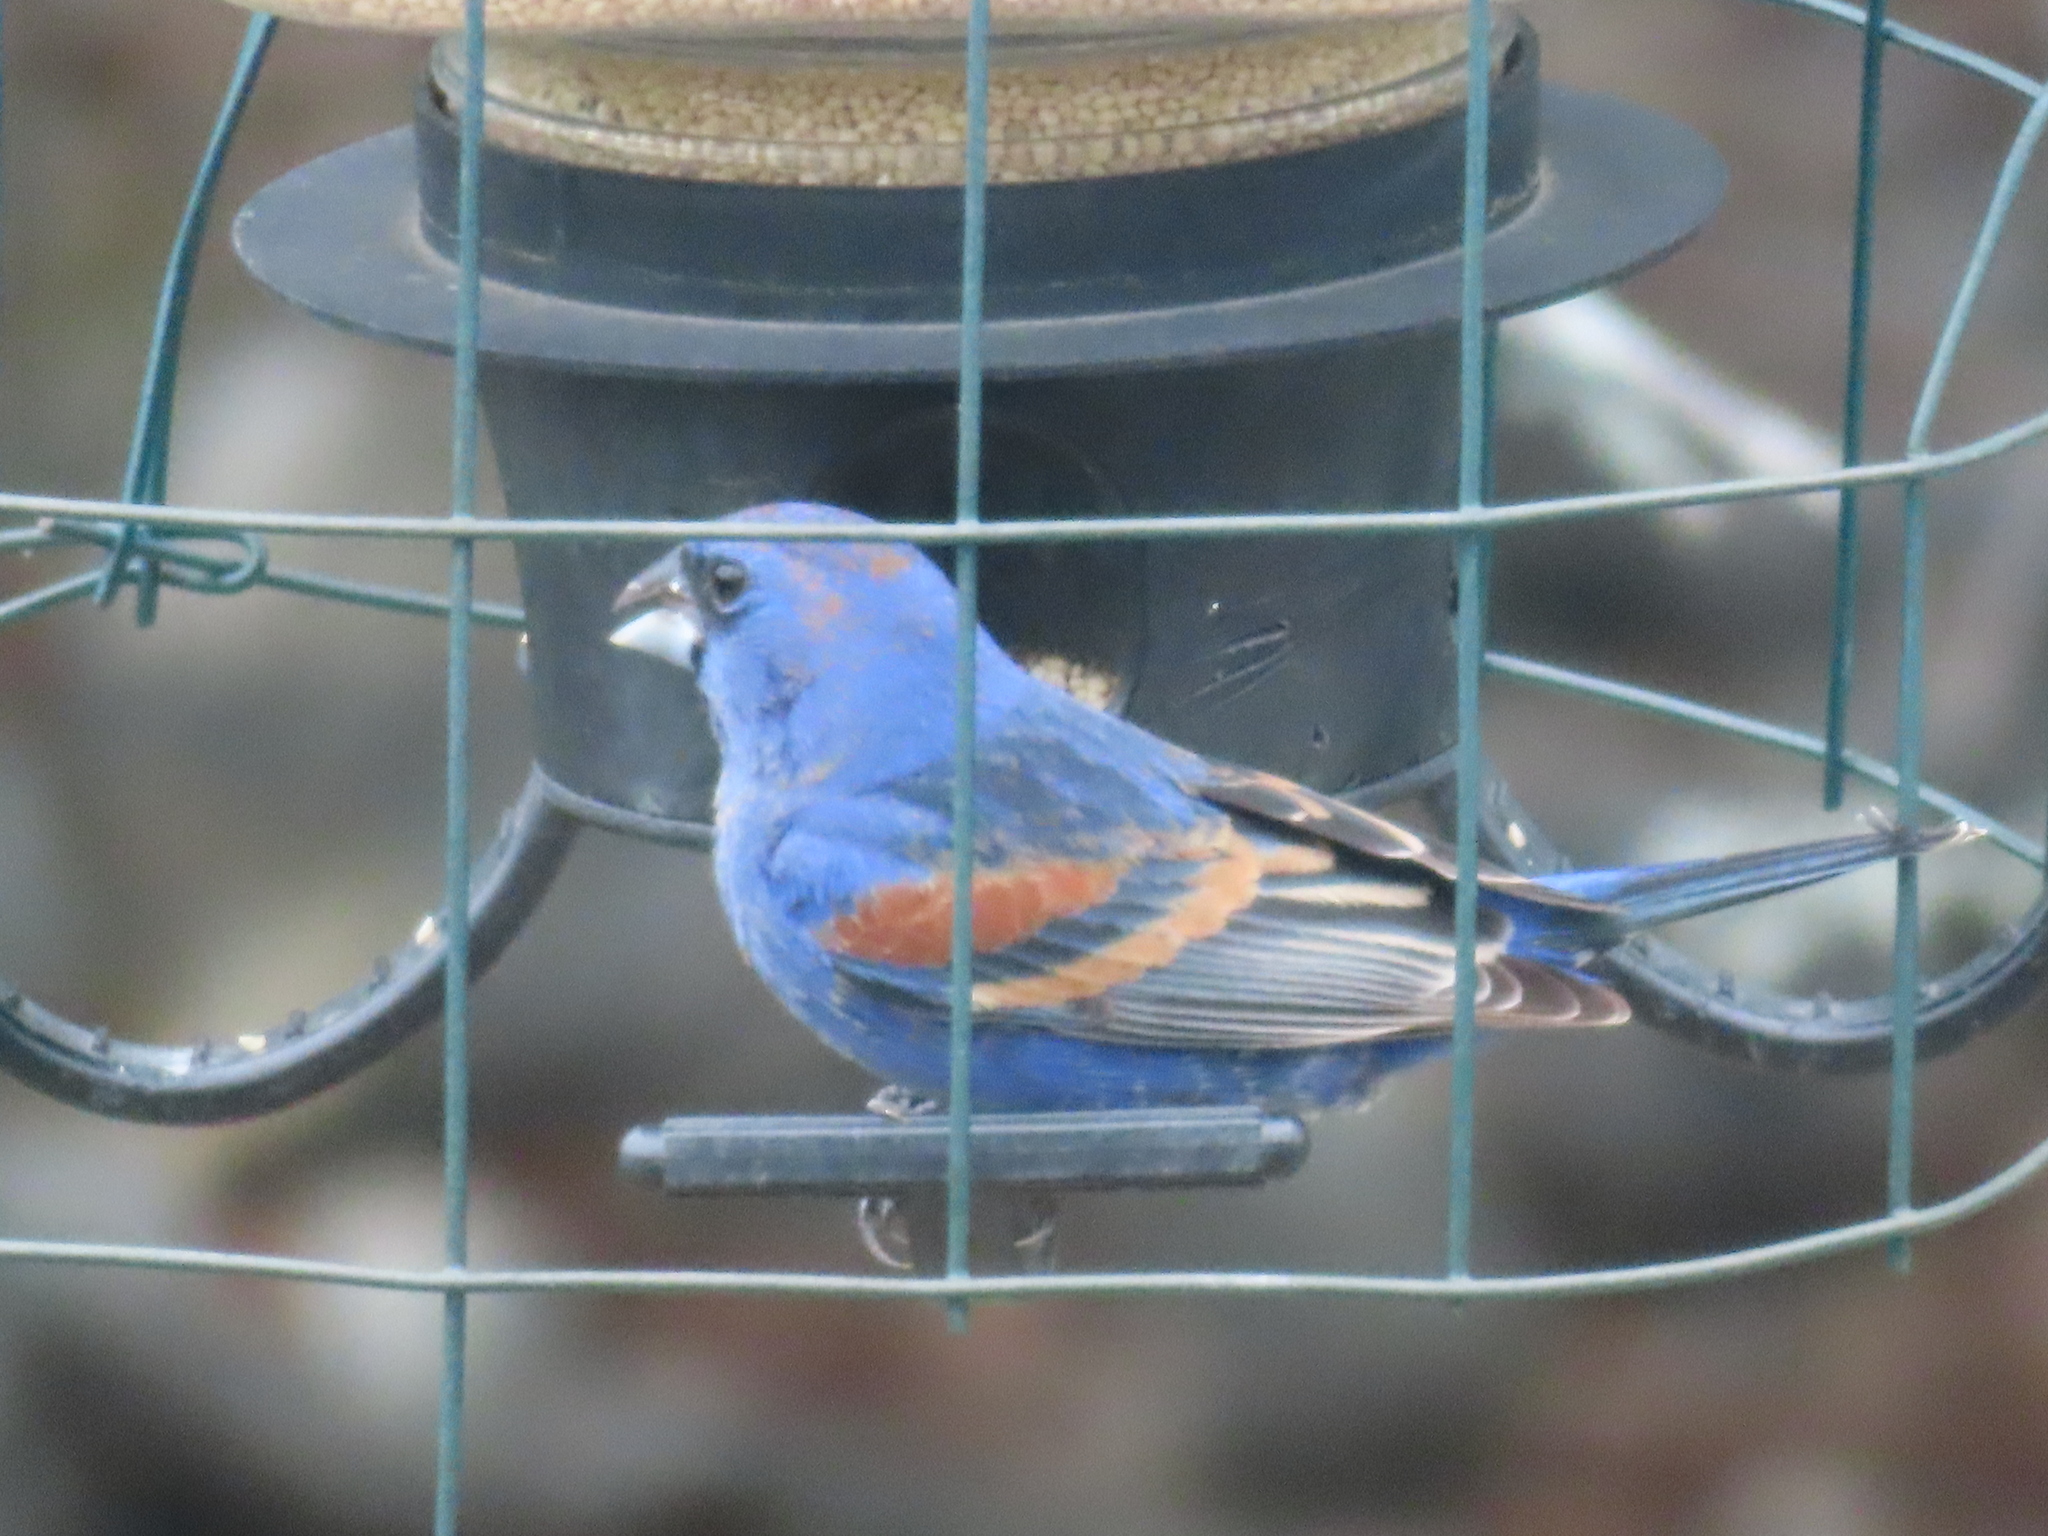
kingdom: Animalia
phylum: Chordata
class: Aves
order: Passeriformes
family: Cardinalidae
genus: Passerina
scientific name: Passerina caerulea
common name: Blue grosbeak
